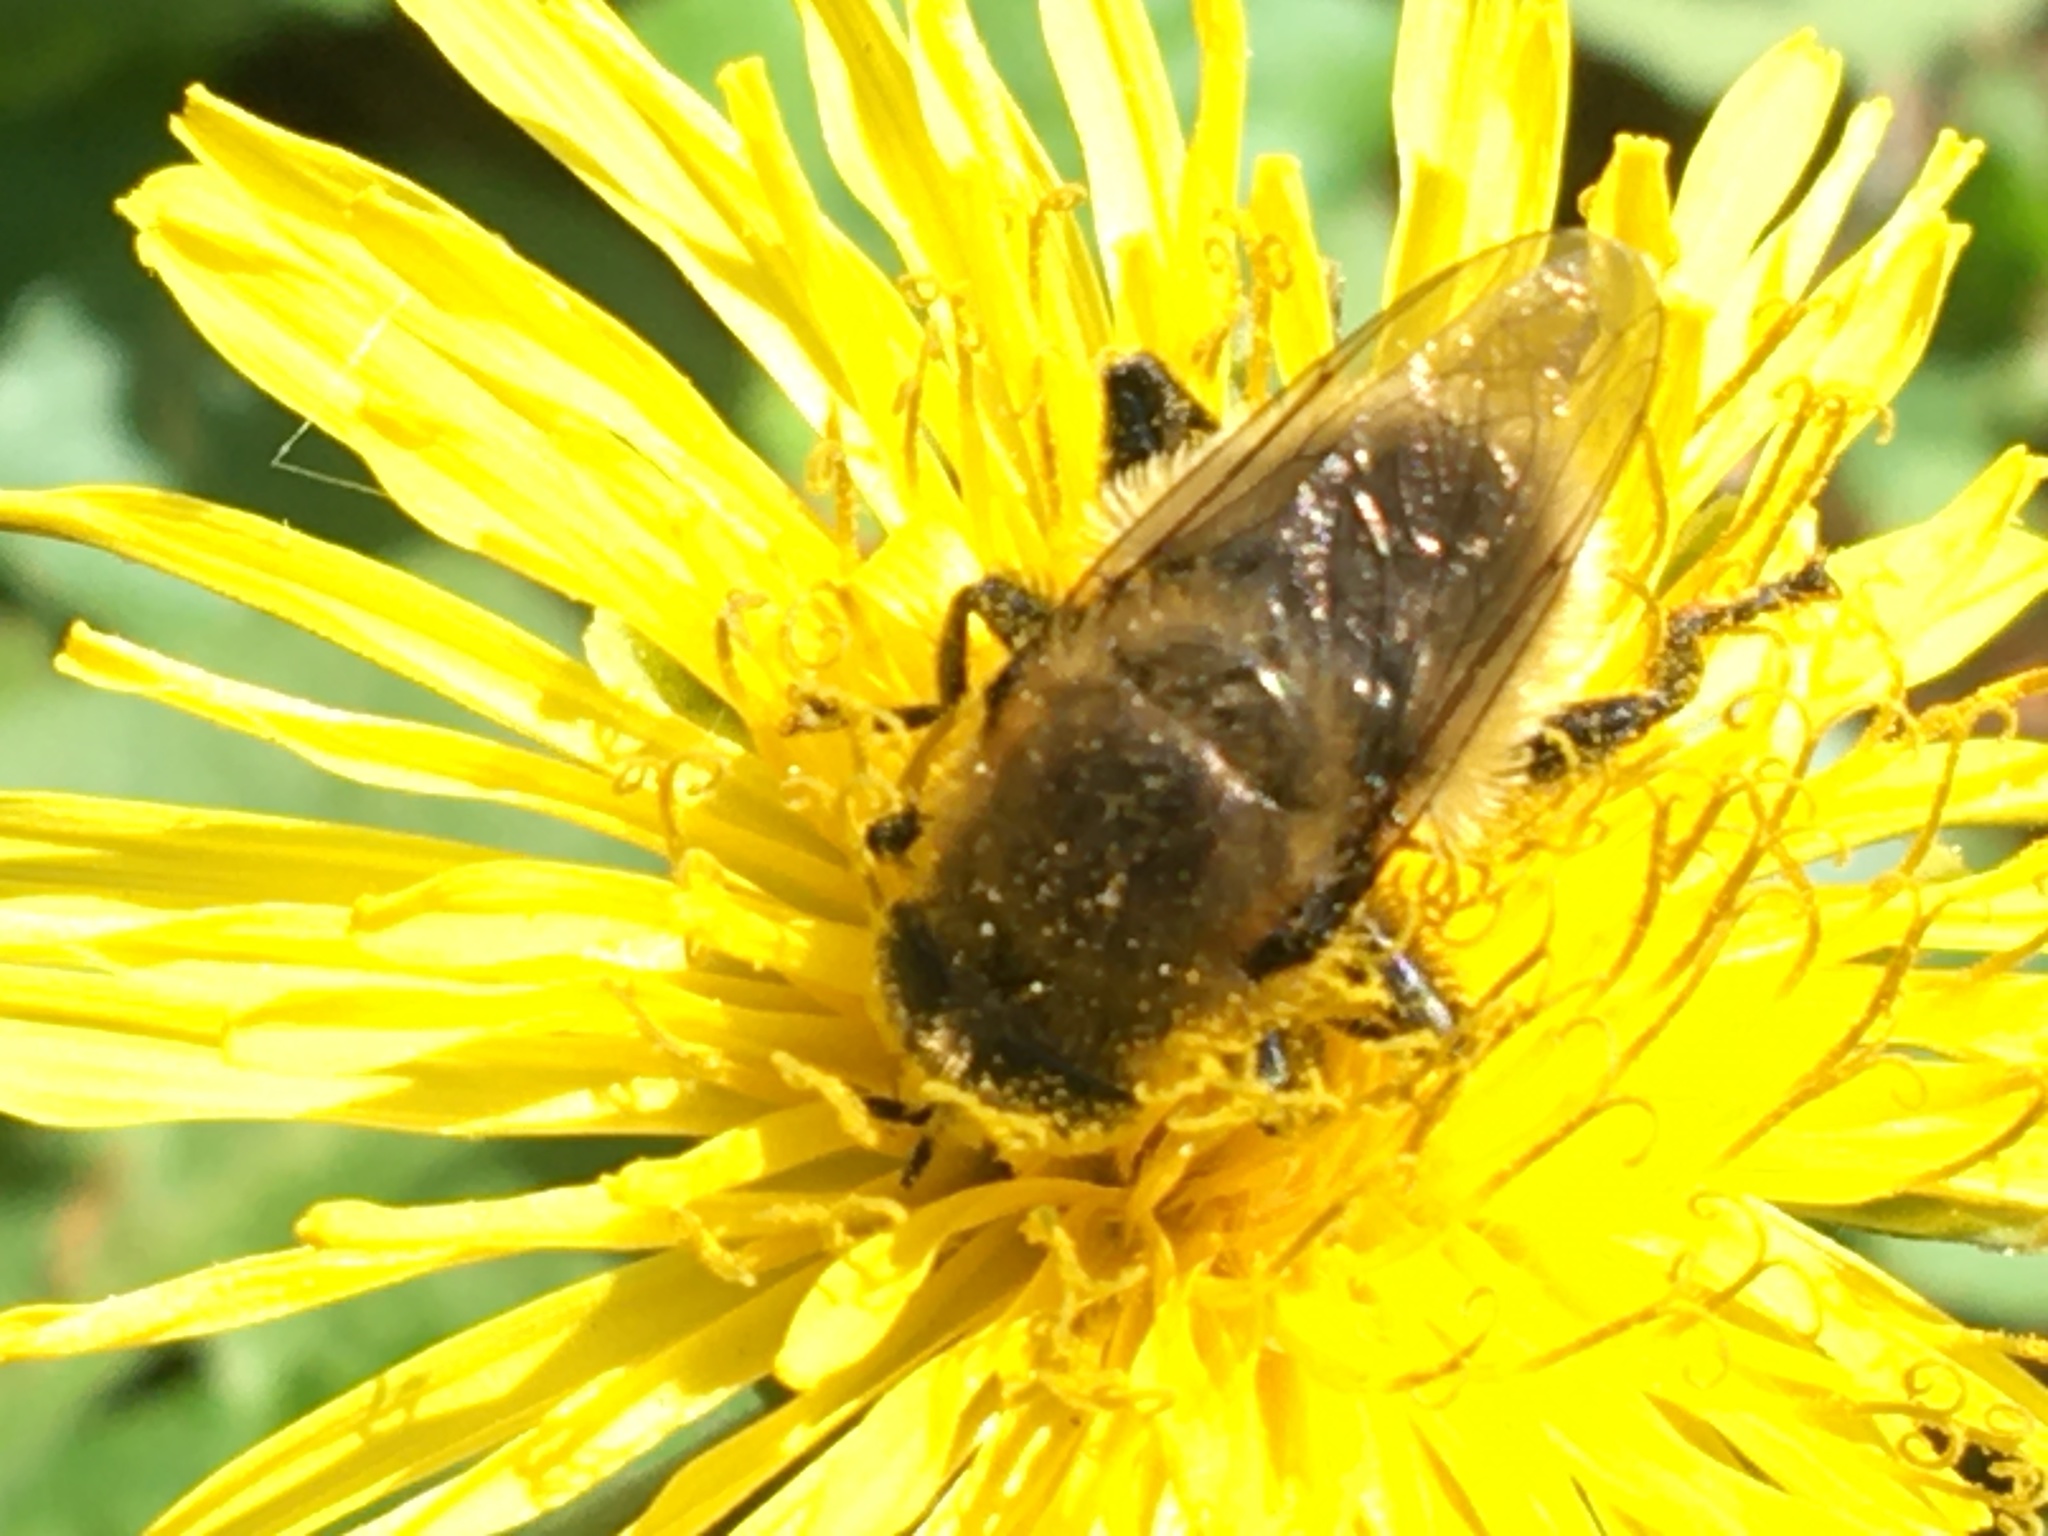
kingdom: Animalia
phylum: Arthropoda
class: Insecta
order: Diptera
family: Syrphidae
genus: Merodon
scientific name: Merodon equestris
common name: Greater bulb-fly
